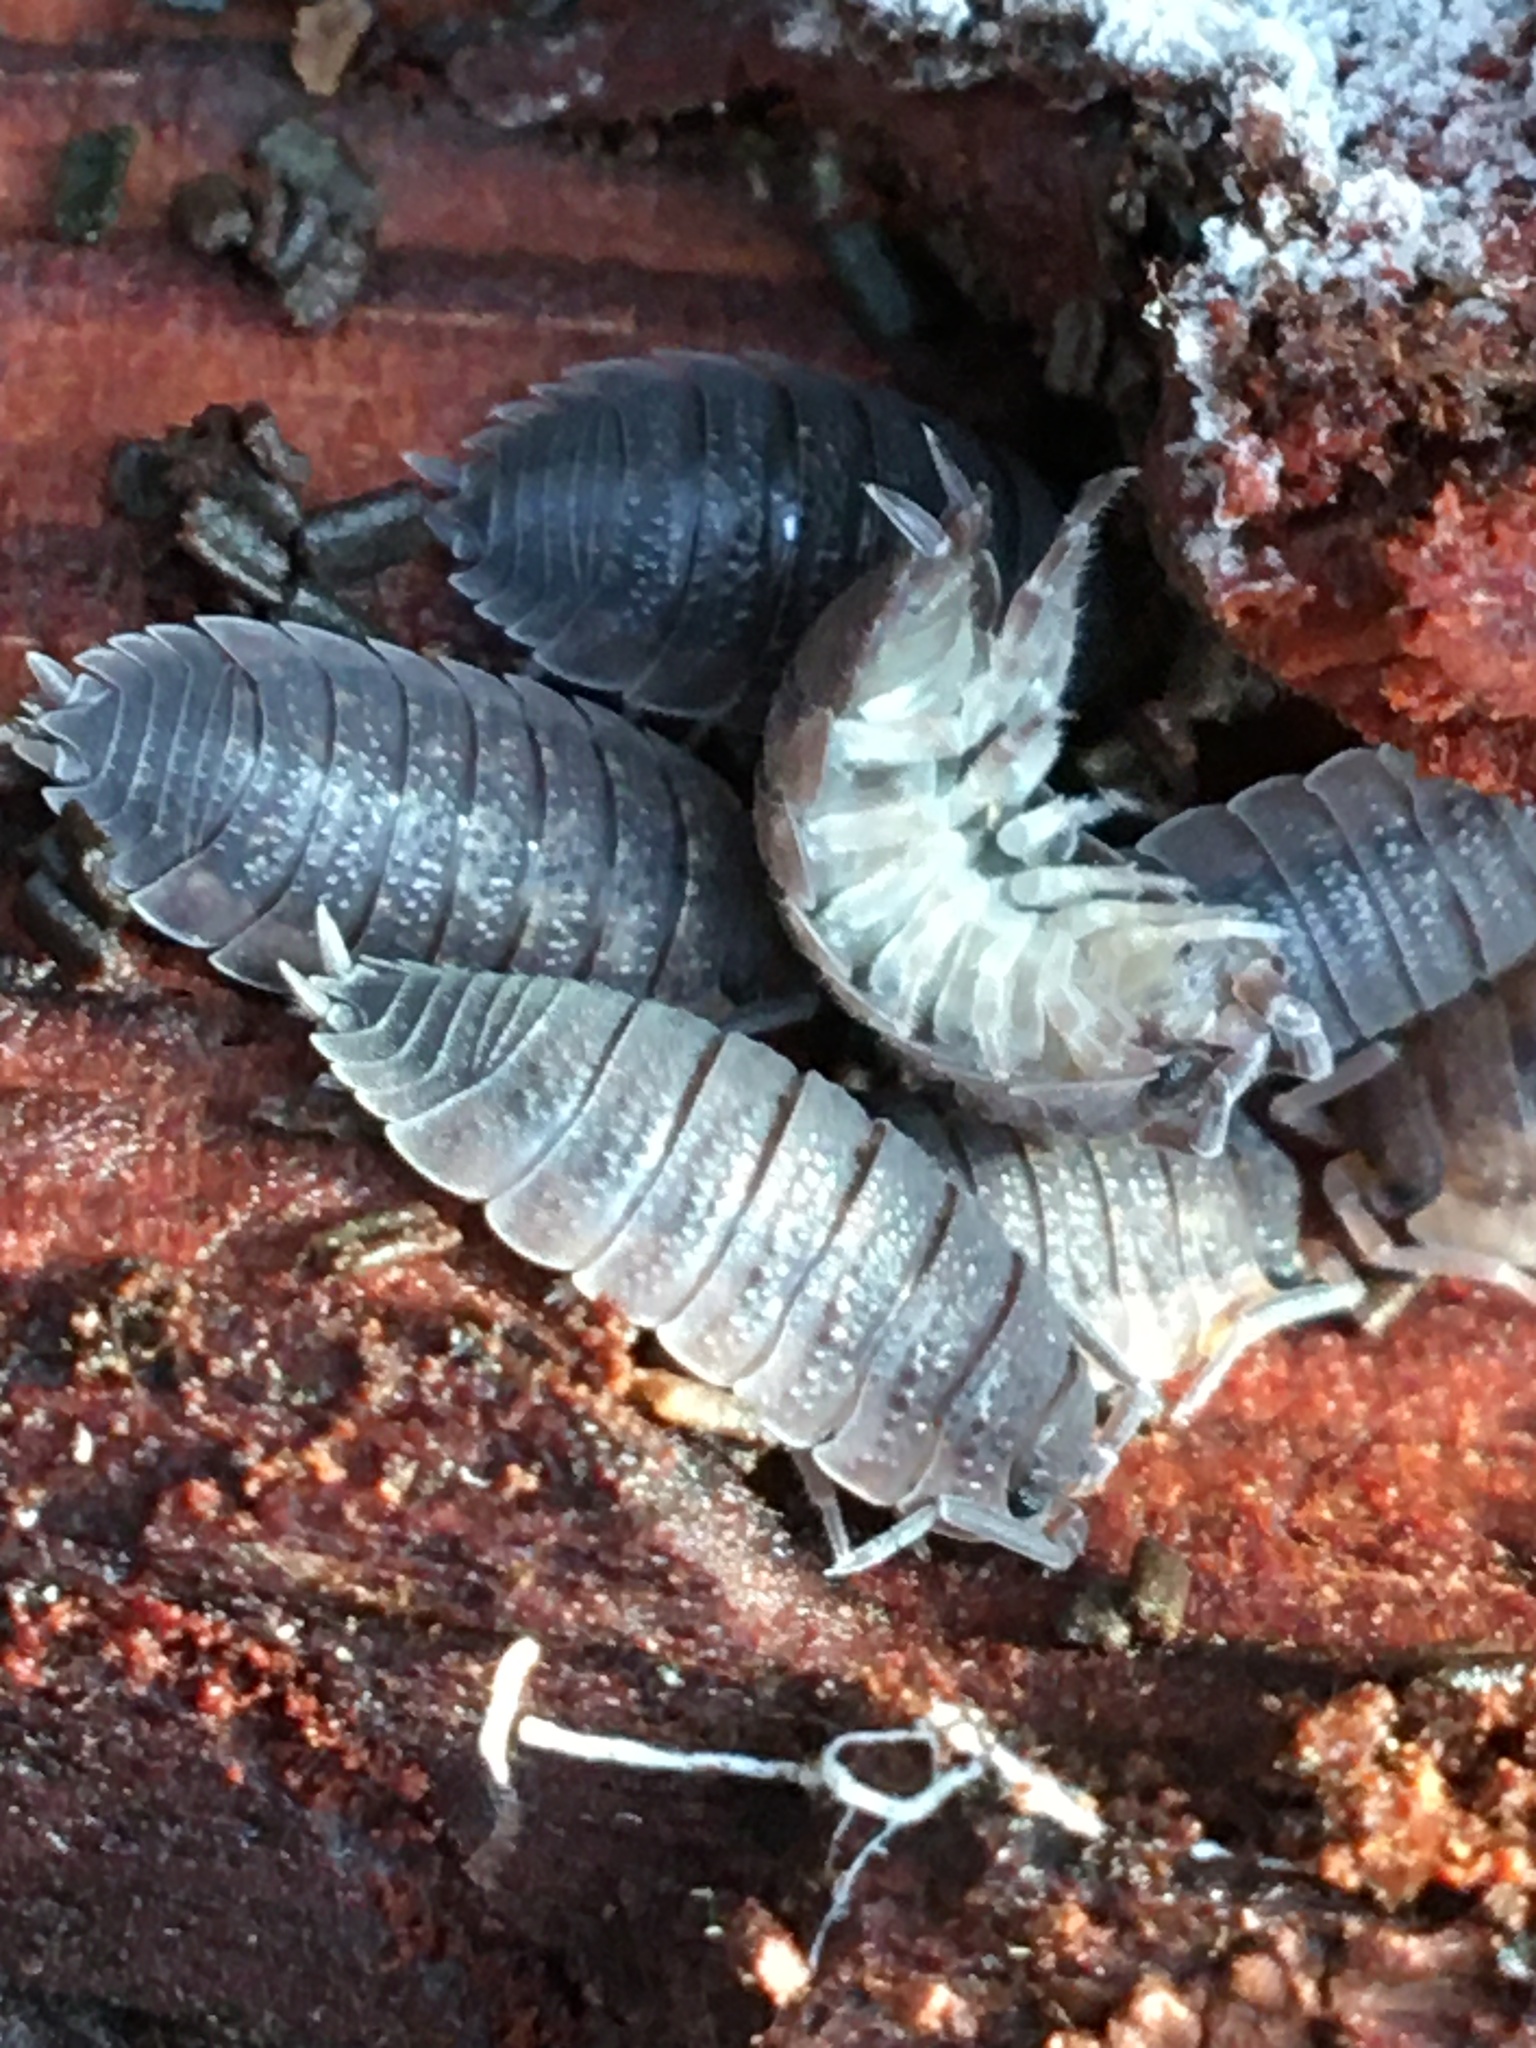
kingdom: Animalia
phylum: Arthropoda
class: Malacostraca
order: Isopoda
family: Porcellionidae
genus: Porcellio
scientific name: Porcellio scaber
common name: Common rough woodlouse
